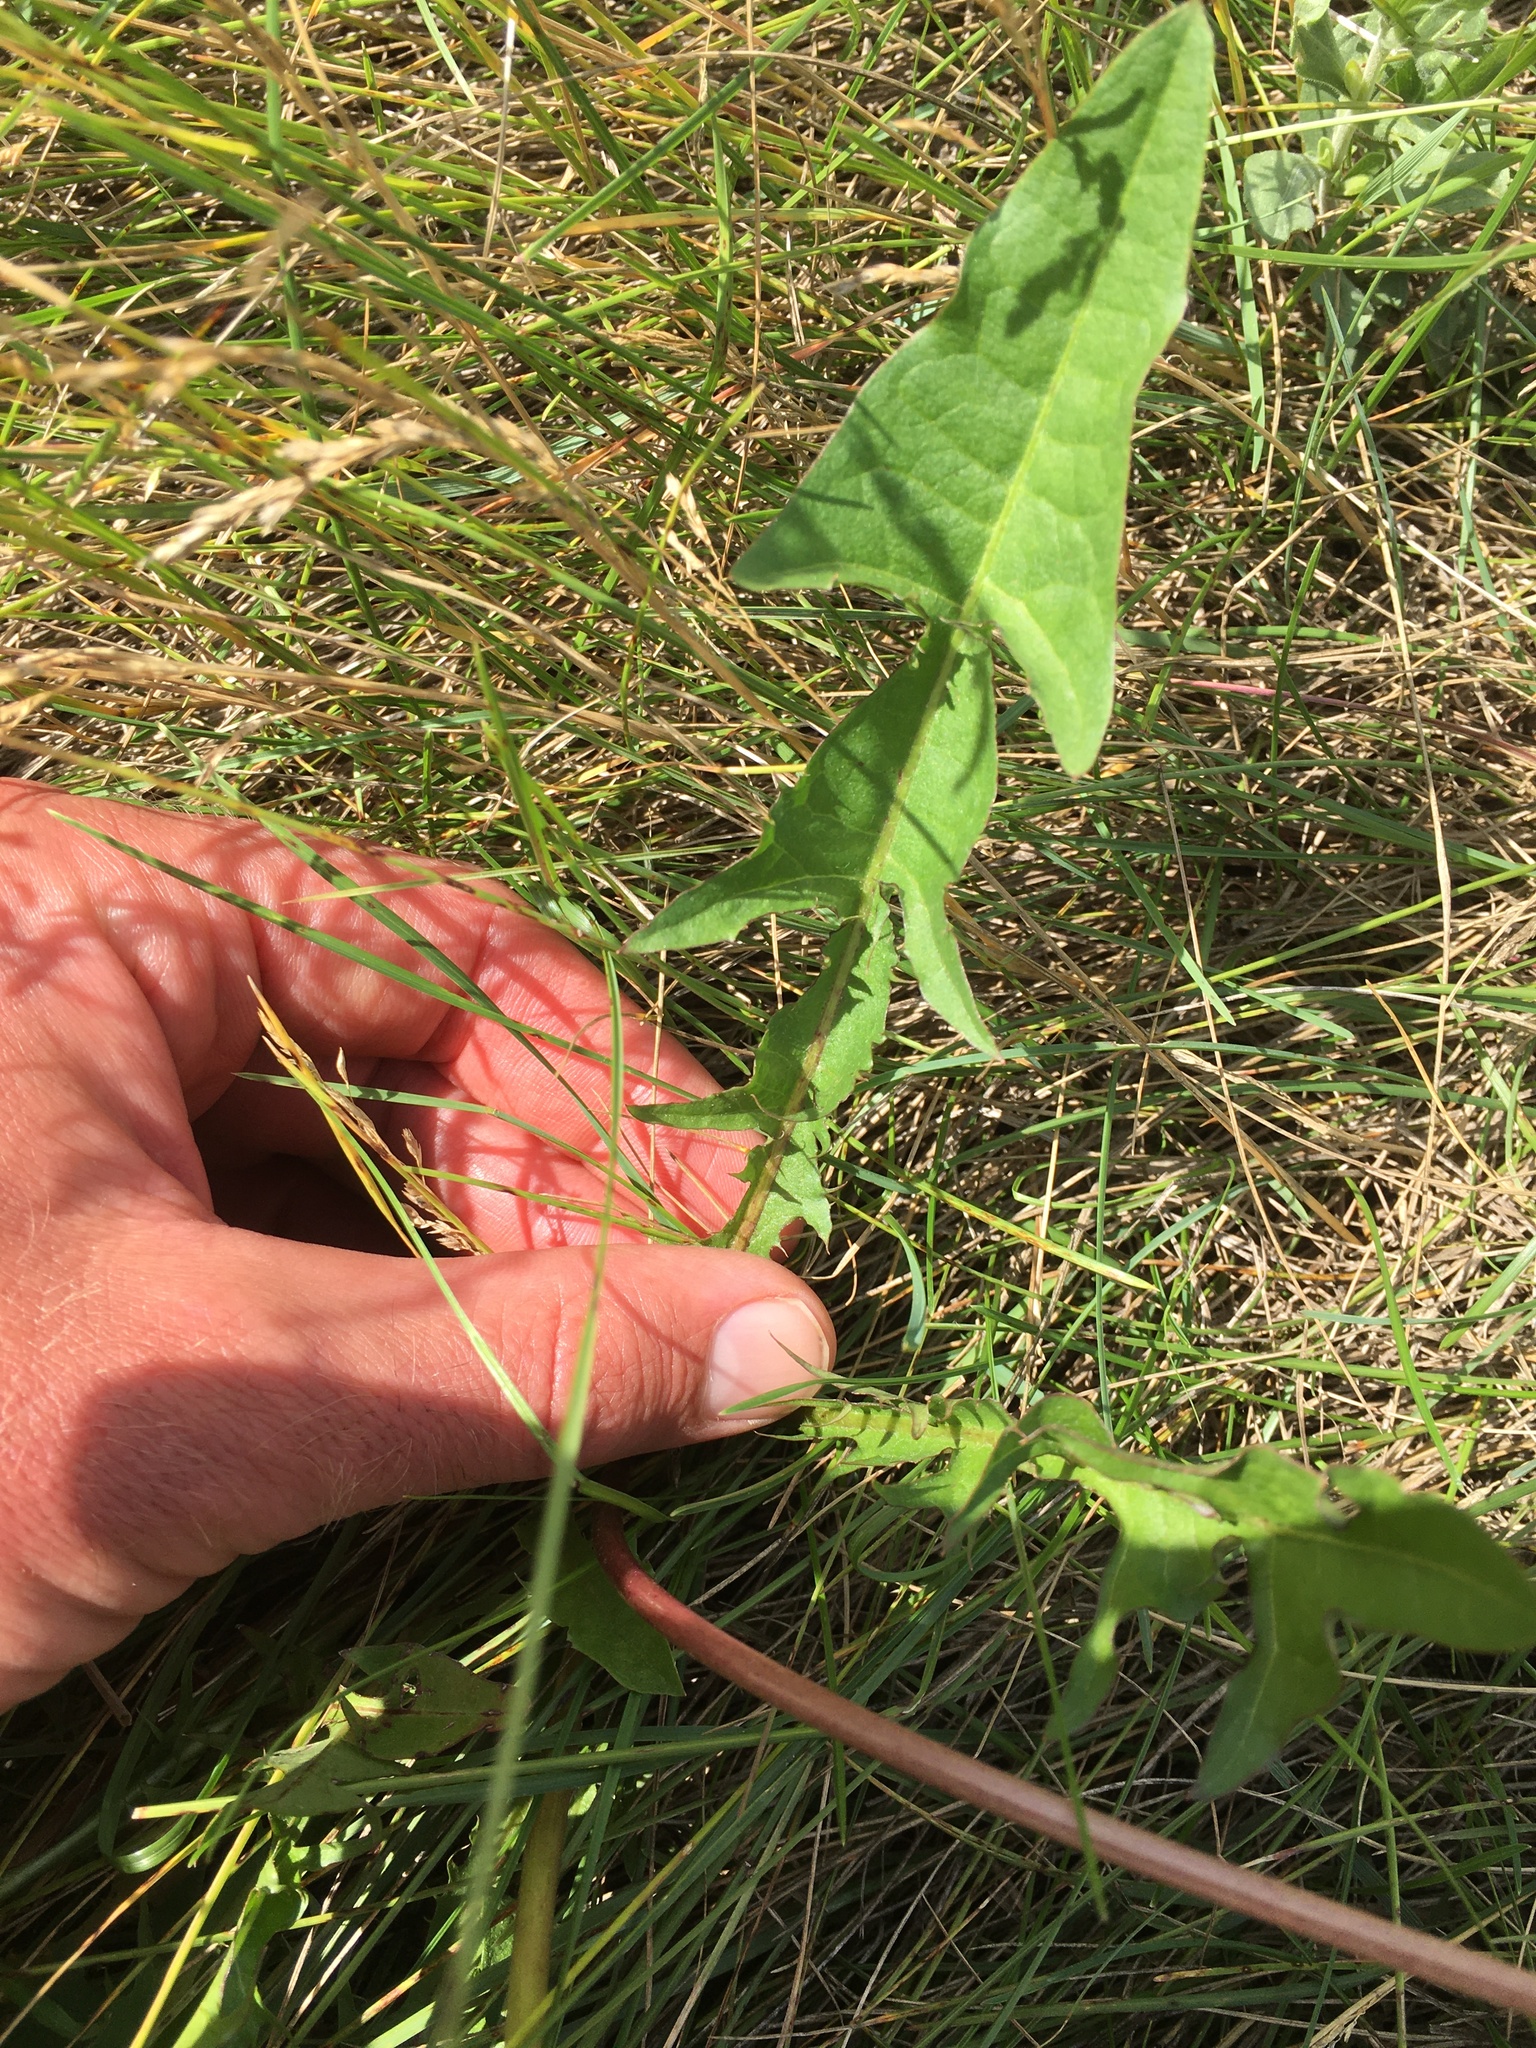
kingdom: Plantae
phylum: Tracheophyta
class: Magnoliopsida
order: Asterales
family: Asteraceae
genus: Taraxacum
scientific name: Taraxacum officinale
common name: Common dandelion
